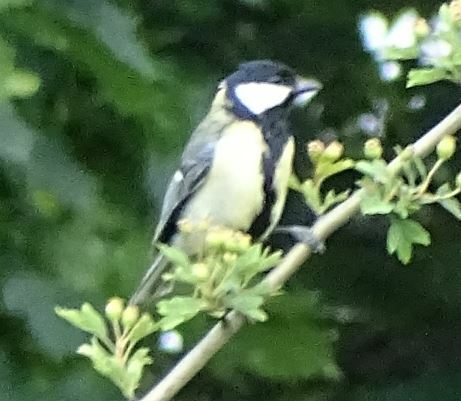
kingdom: Animalia
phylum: Chordata
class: Aves
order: Passeriformes
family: Paridae
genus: Parus
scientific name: Parus major
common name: Great tit
